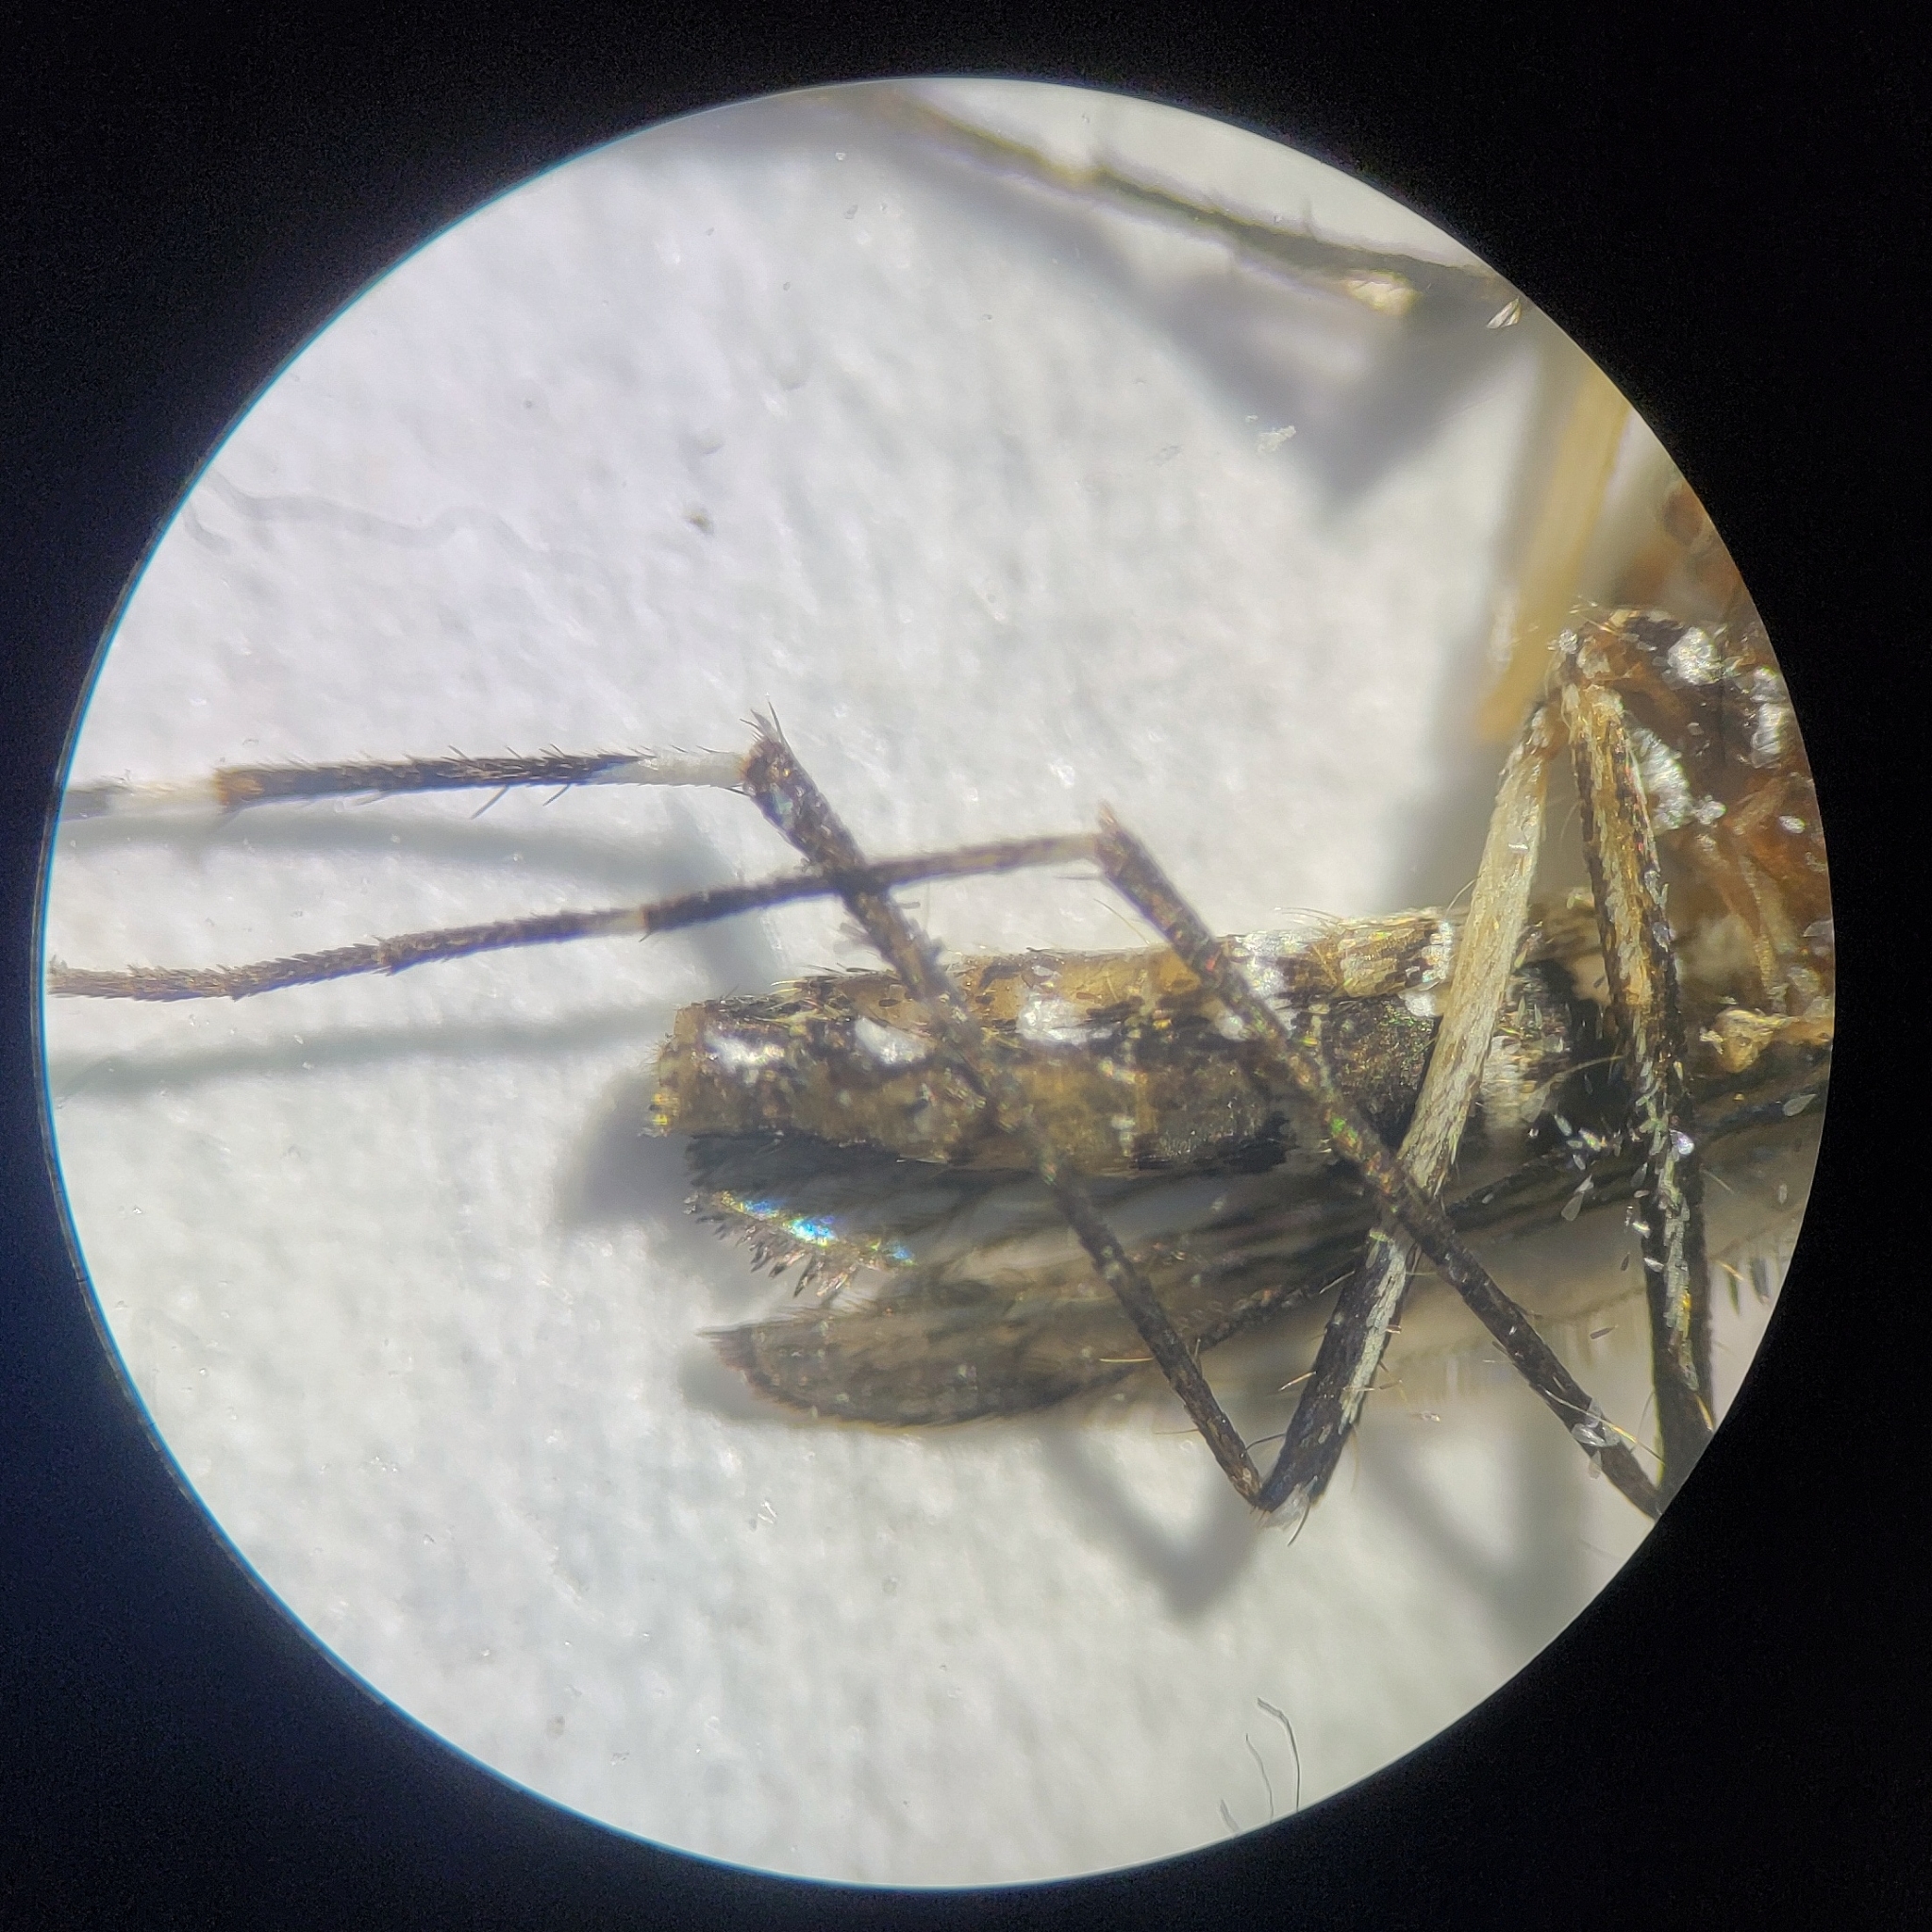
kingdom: Animalia
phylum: Arthropoda
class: Insecta
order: Diptera
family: Culicidae
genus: Aedes
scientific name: Aedes aegypti
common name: Yellow fever mosquito
